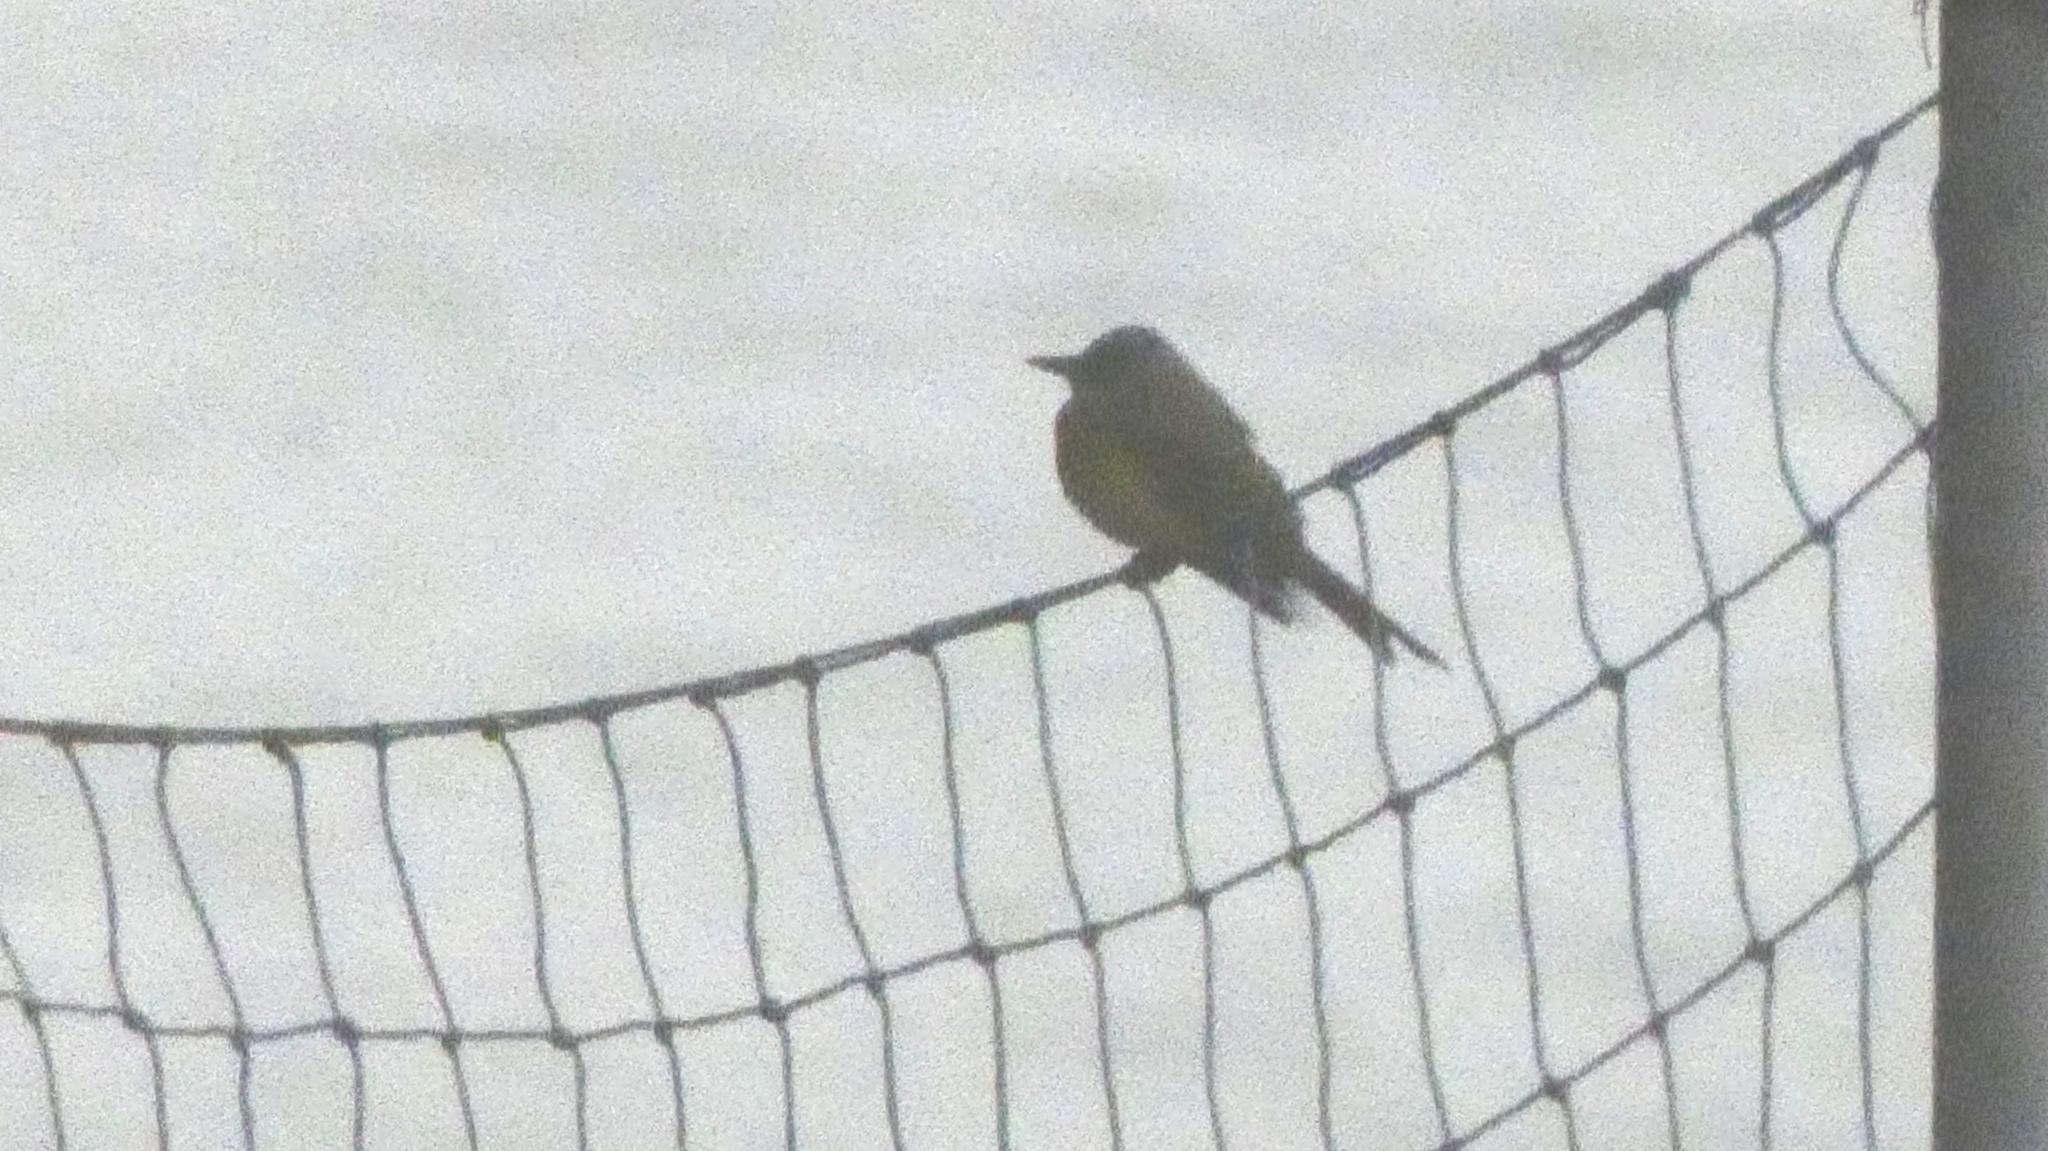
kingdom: Animalia
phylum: Chordata
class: Aves
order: Passeriformes
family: Tyrannidae
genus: Tyrannus
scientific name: Tyrannus melancholicus
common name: Tropical kingbird
